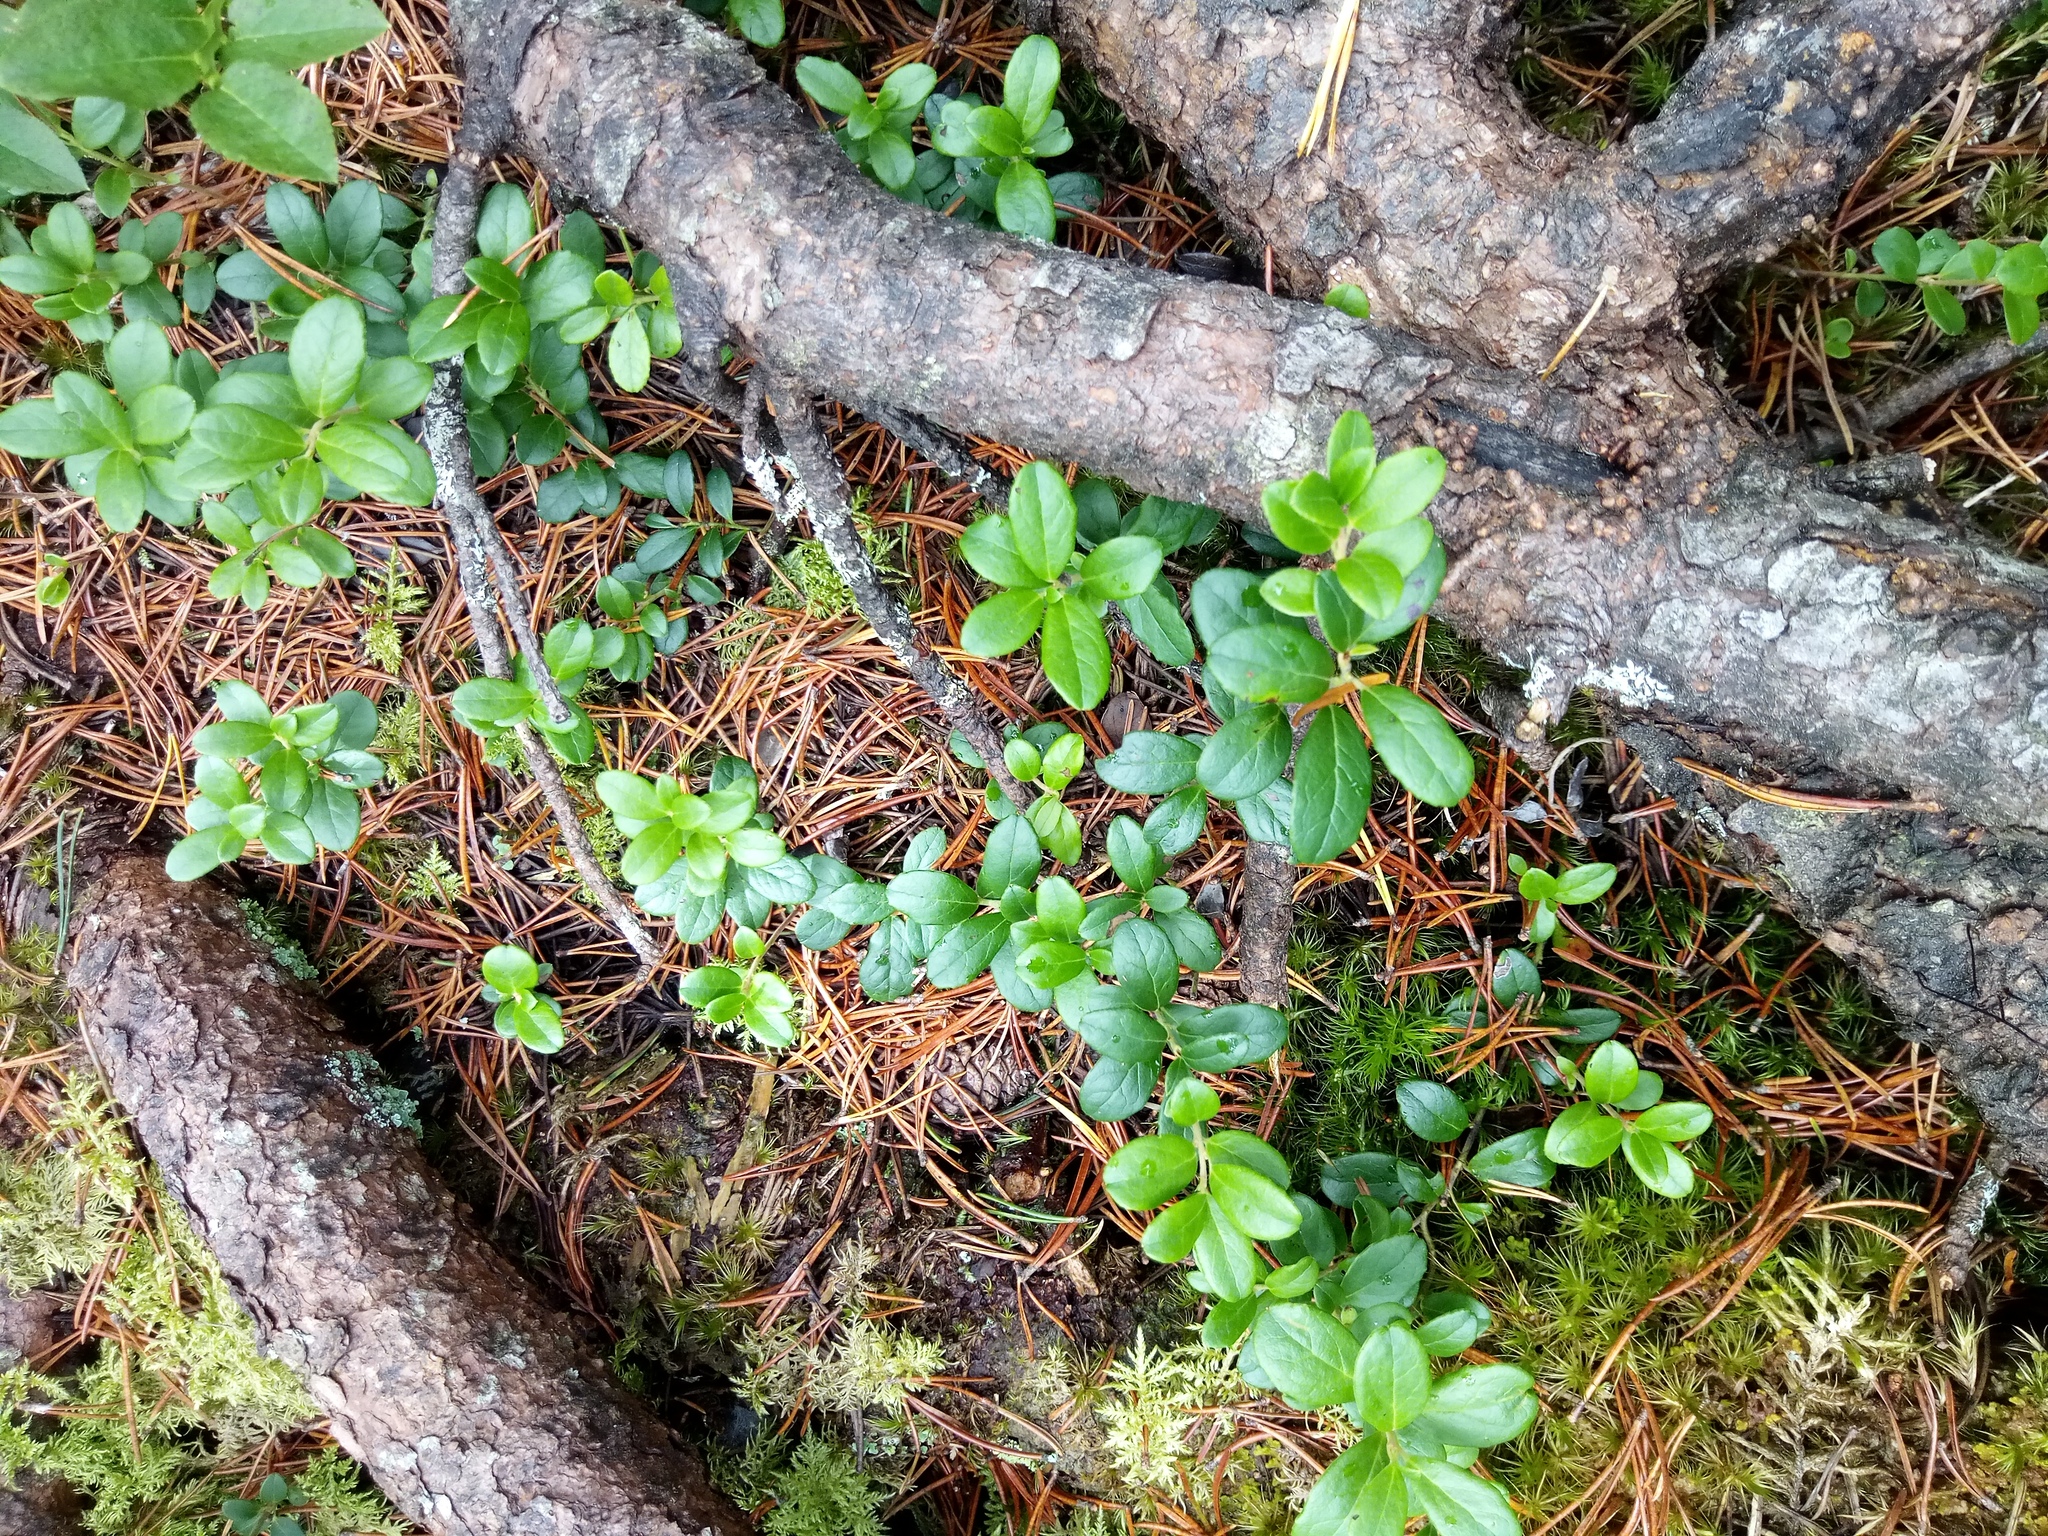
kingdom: Plantae
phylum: Tracheophyta
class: Magnoliopsida
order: Ericales
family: Ericaceae
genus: Vaccinium
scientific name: Vaccinium vitis-idaea
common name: Cowberry
